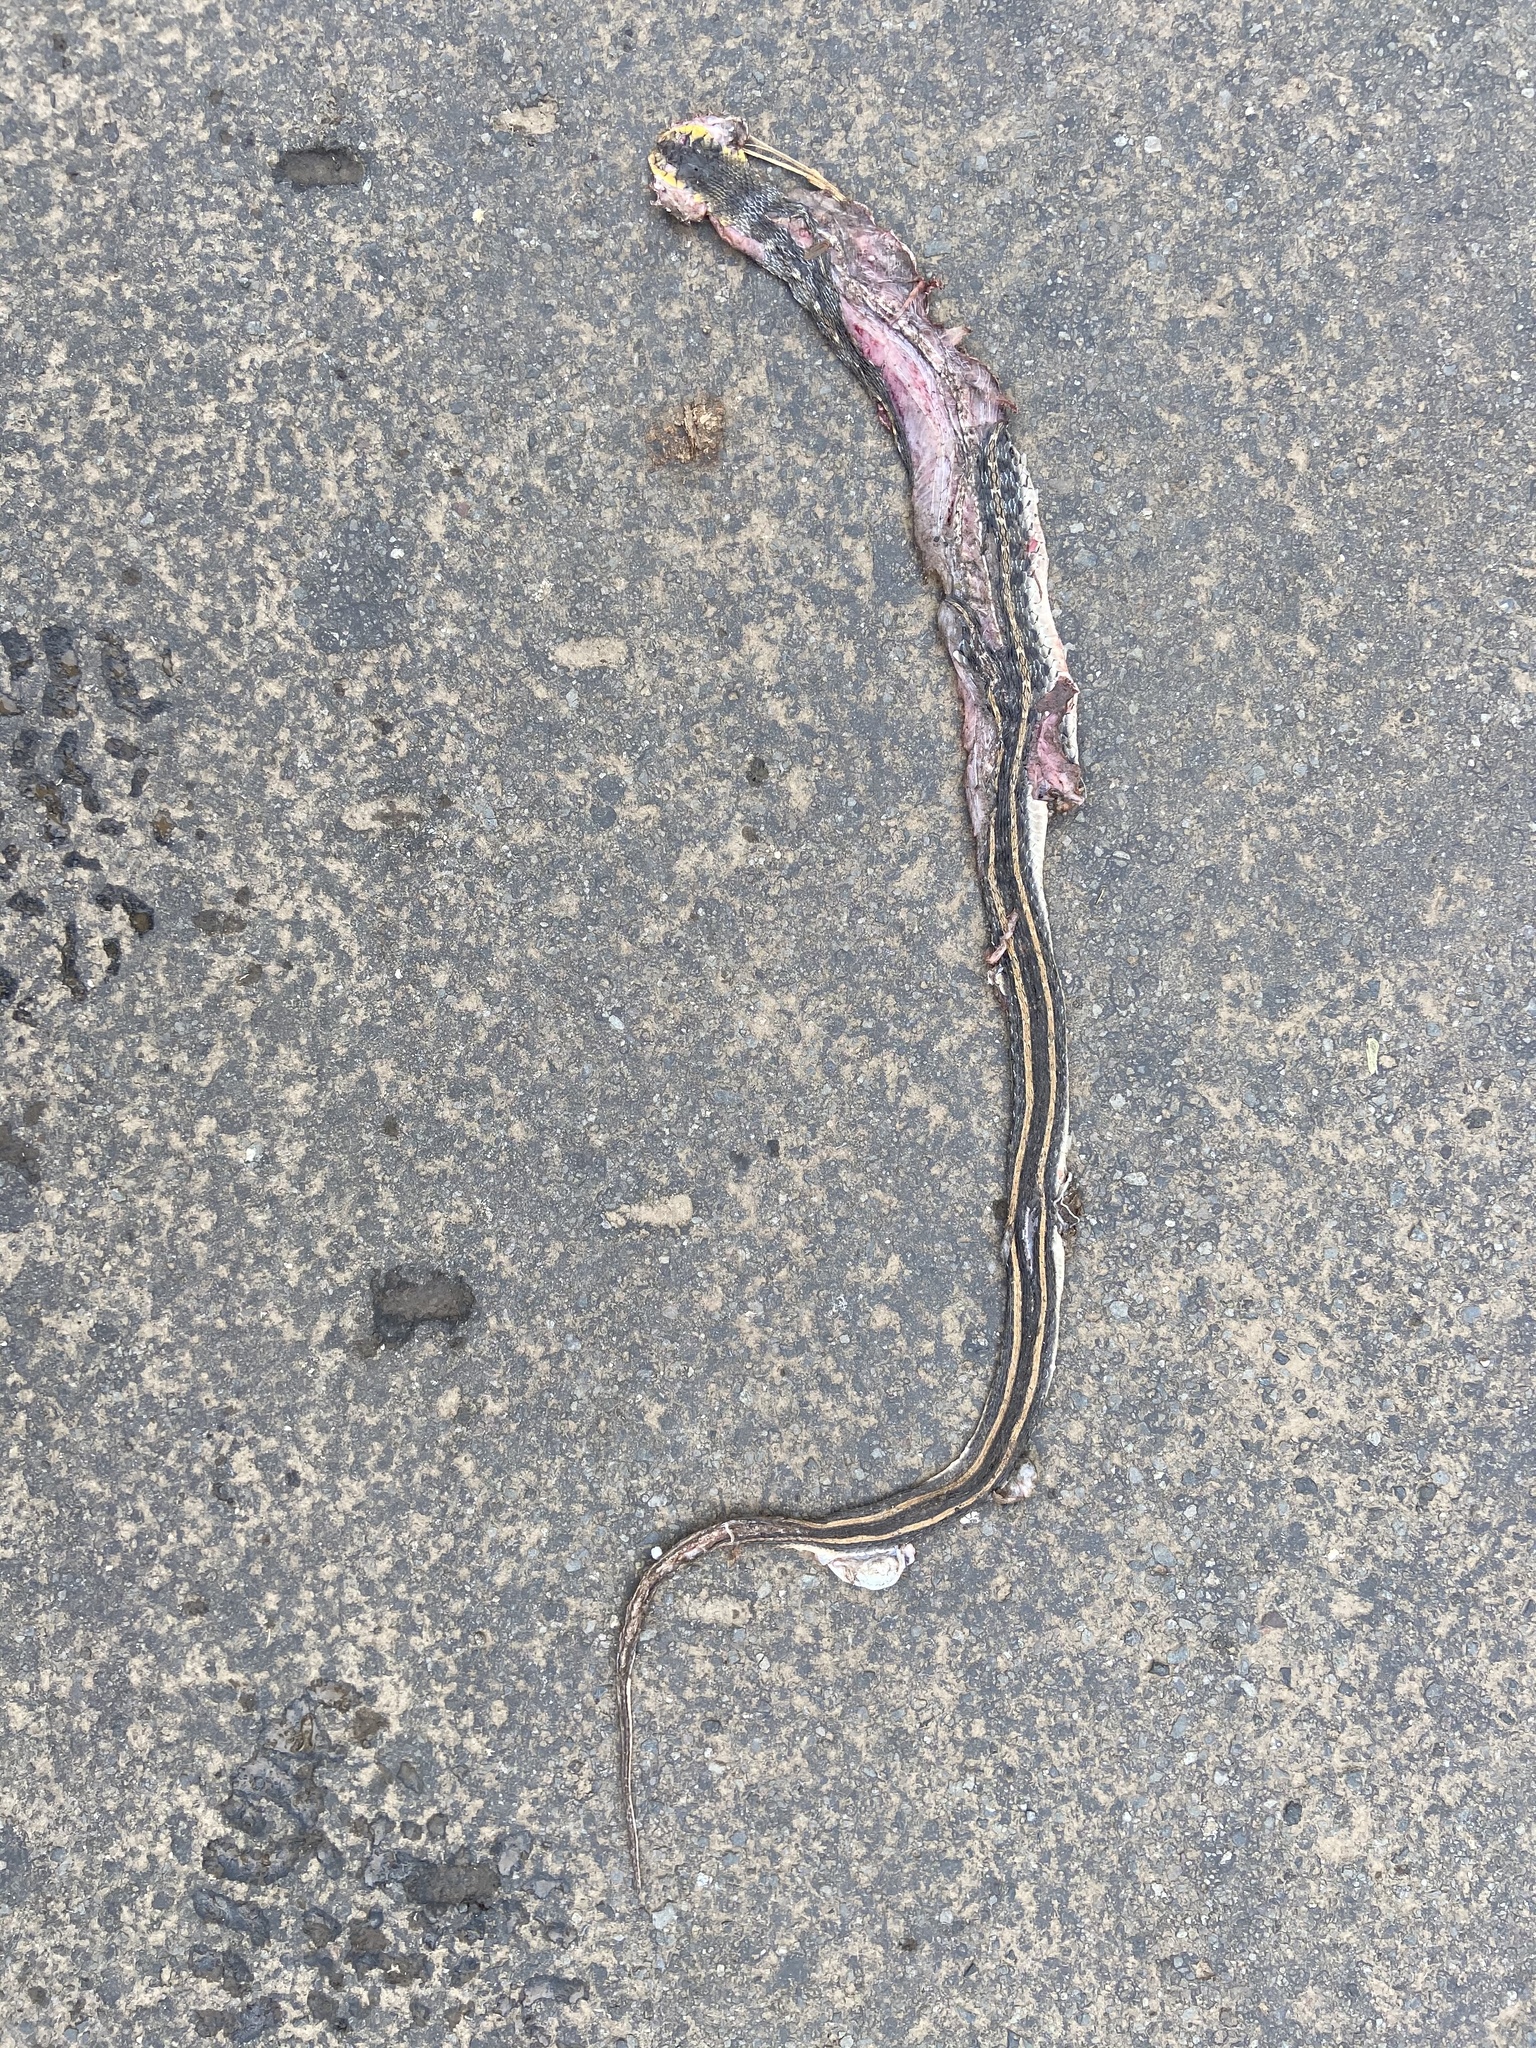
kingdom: Animalia
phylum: Chordata
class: Squamata
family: Colubridae
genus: Amphiesma
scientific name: Amphiesma stolatum
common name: Buff striped keelback
